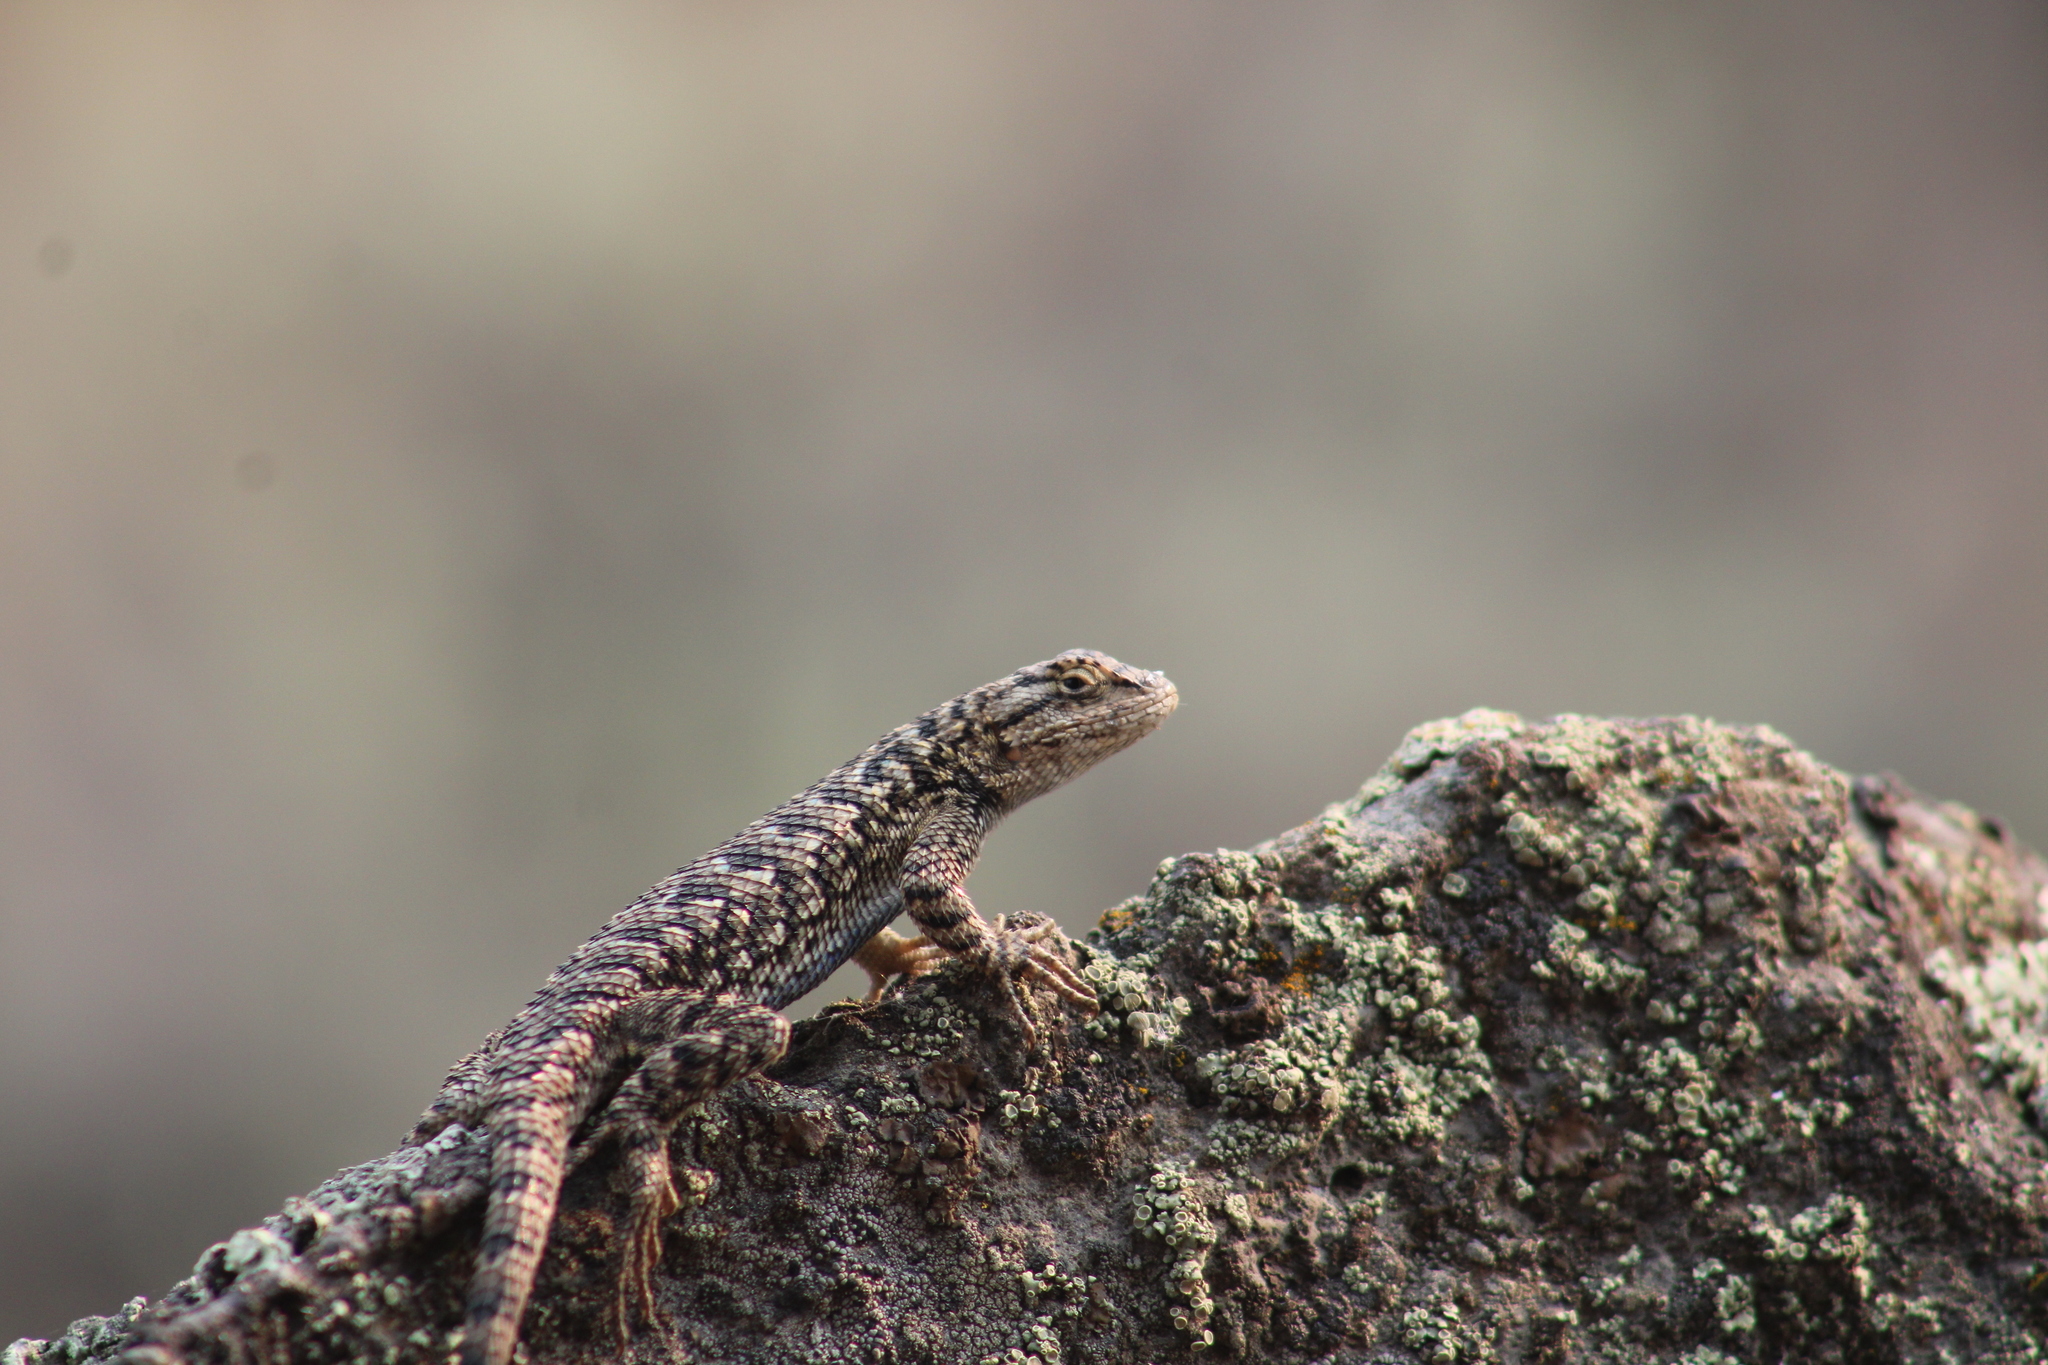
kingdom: Animalia
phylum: Chordata
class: Squamata
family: Phrynosomatidae
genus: Sceloporus
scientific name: Sceloporus occidentalis
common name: Western fence lizard
